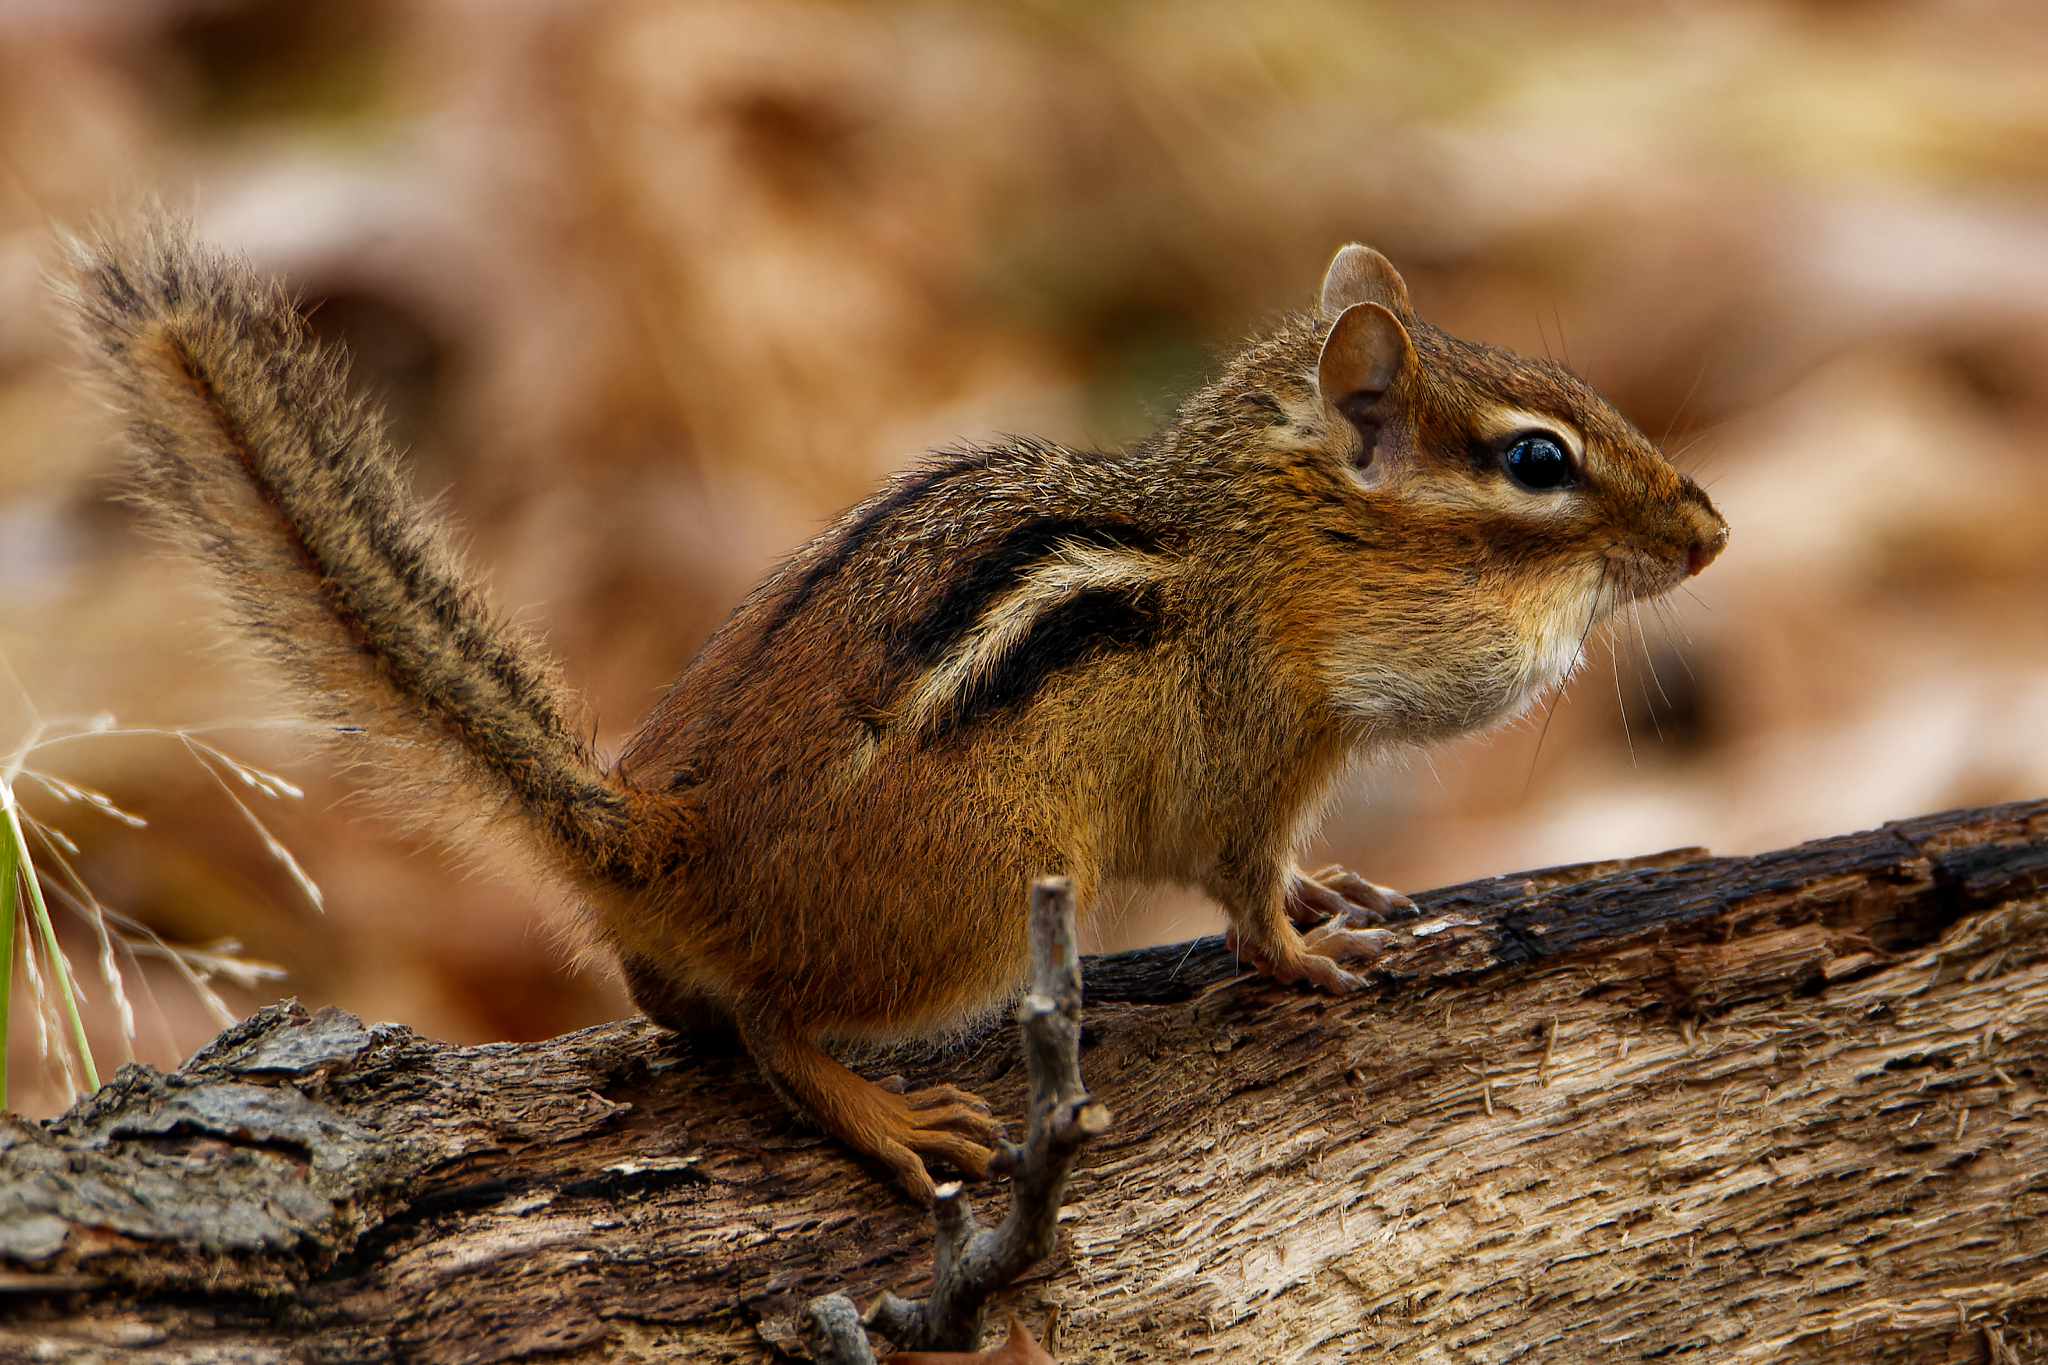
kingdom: Animalia
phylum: Chordata
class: Mammalia
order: Rodentia
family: Sciuridae
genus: Tamias
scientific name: Tamias striatus
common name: Eastern chipmunk
